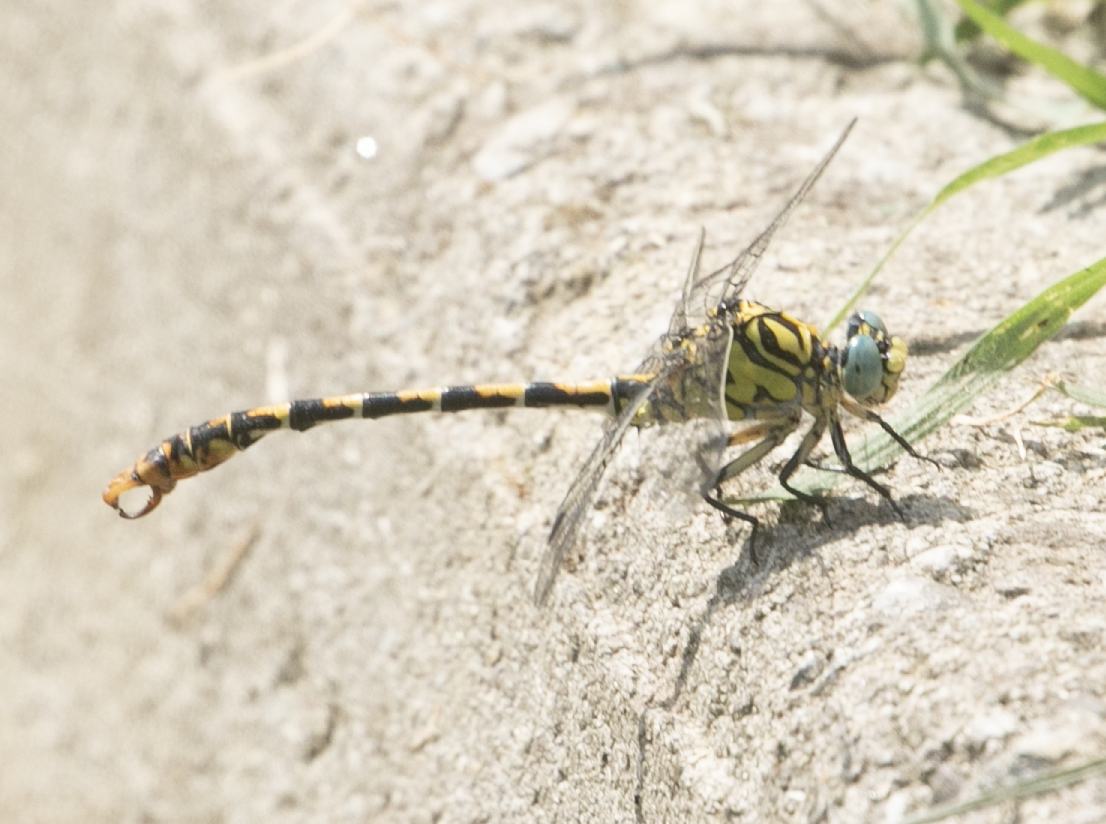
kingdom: Animalia
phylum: Arthropoda
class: Insecta
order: Odonata
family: Gomphidae
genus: Onychogomphus
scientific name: Onychogomphus forcipatus
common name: Small pincertail
